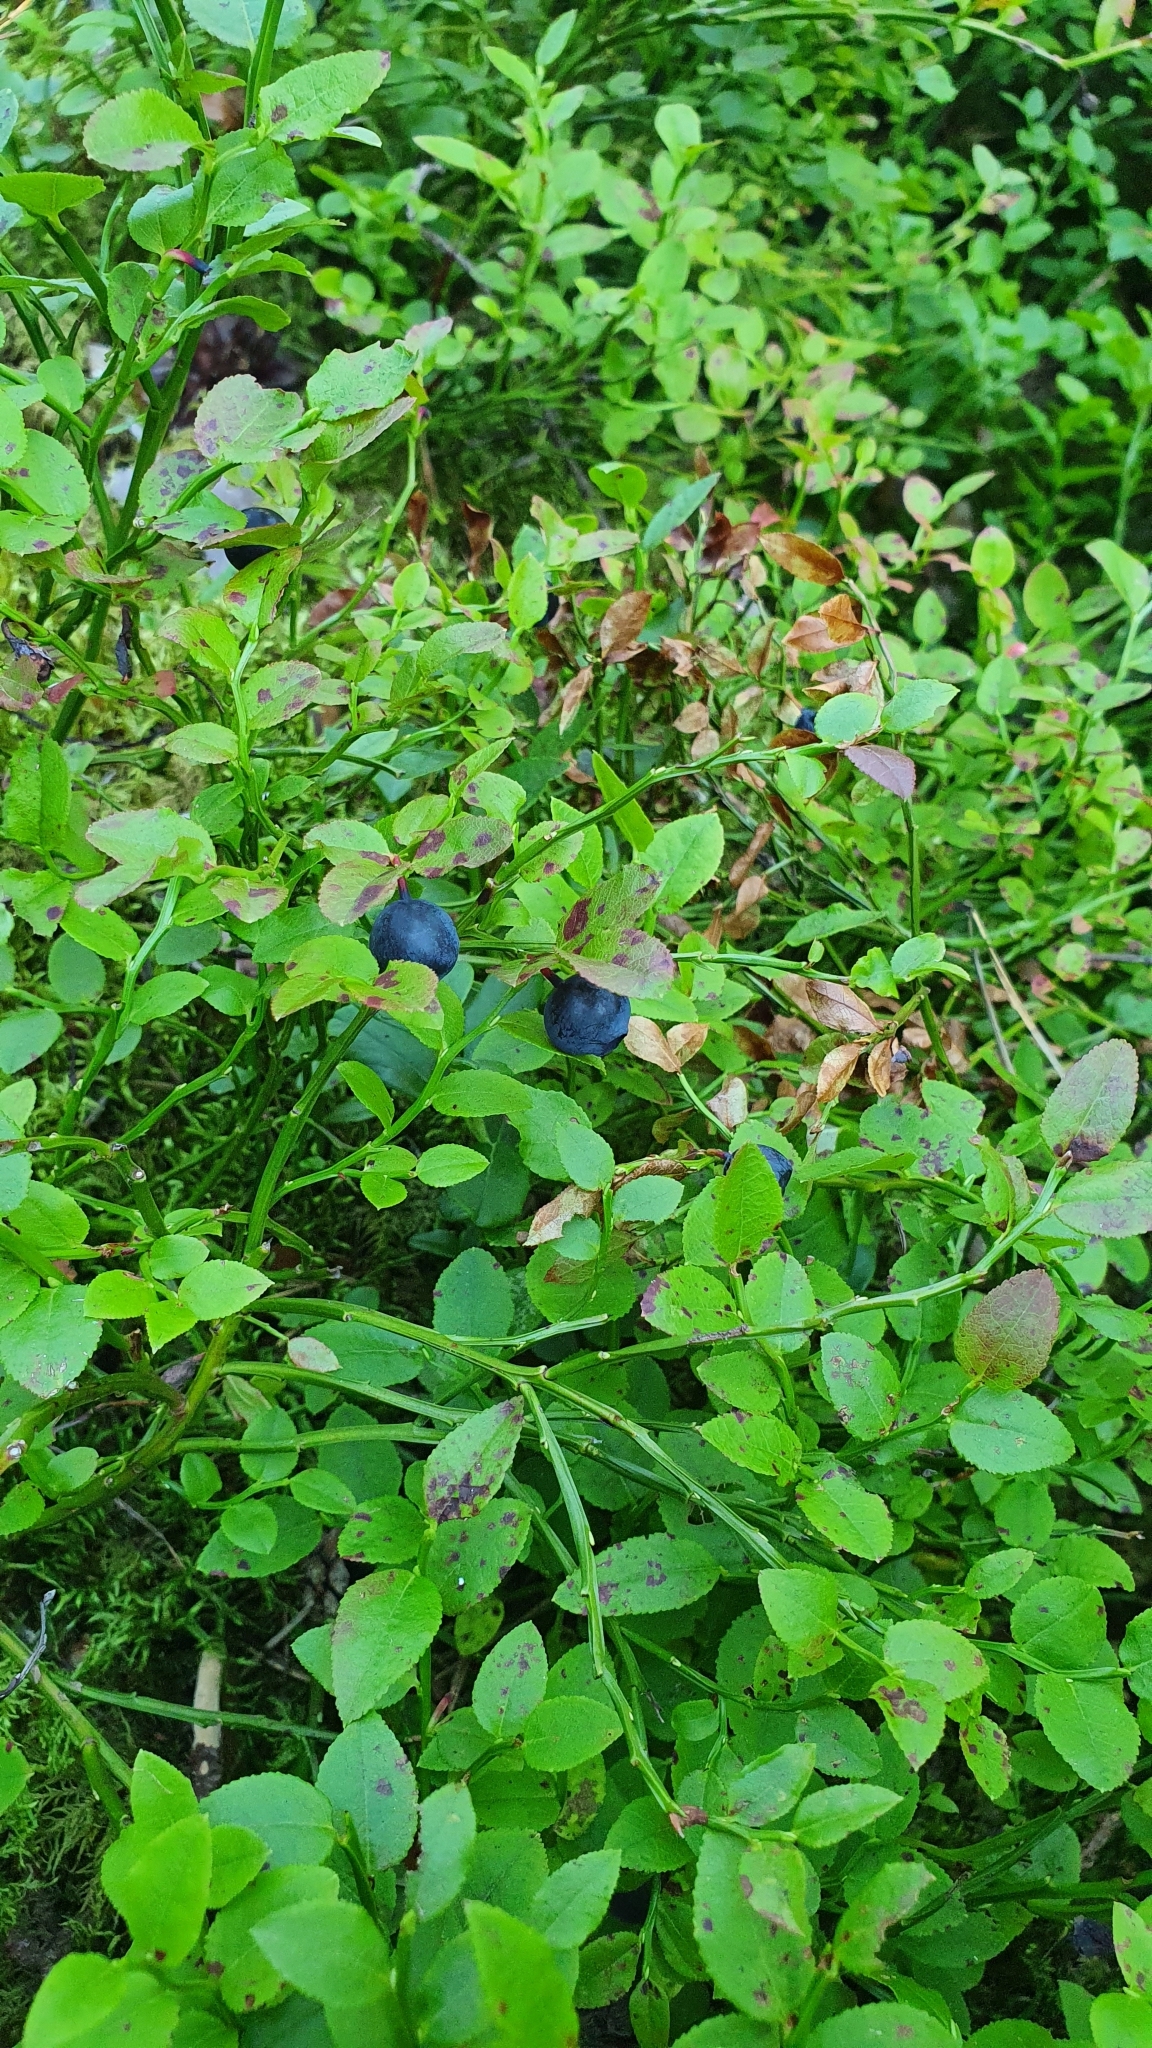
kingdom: Plantae
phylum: Tracheophyta
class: Magnoliopsida
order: Ericales
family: Ericaceae
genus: Vaccinium
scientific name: Vaccinium myrtillus
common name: Bilberry
